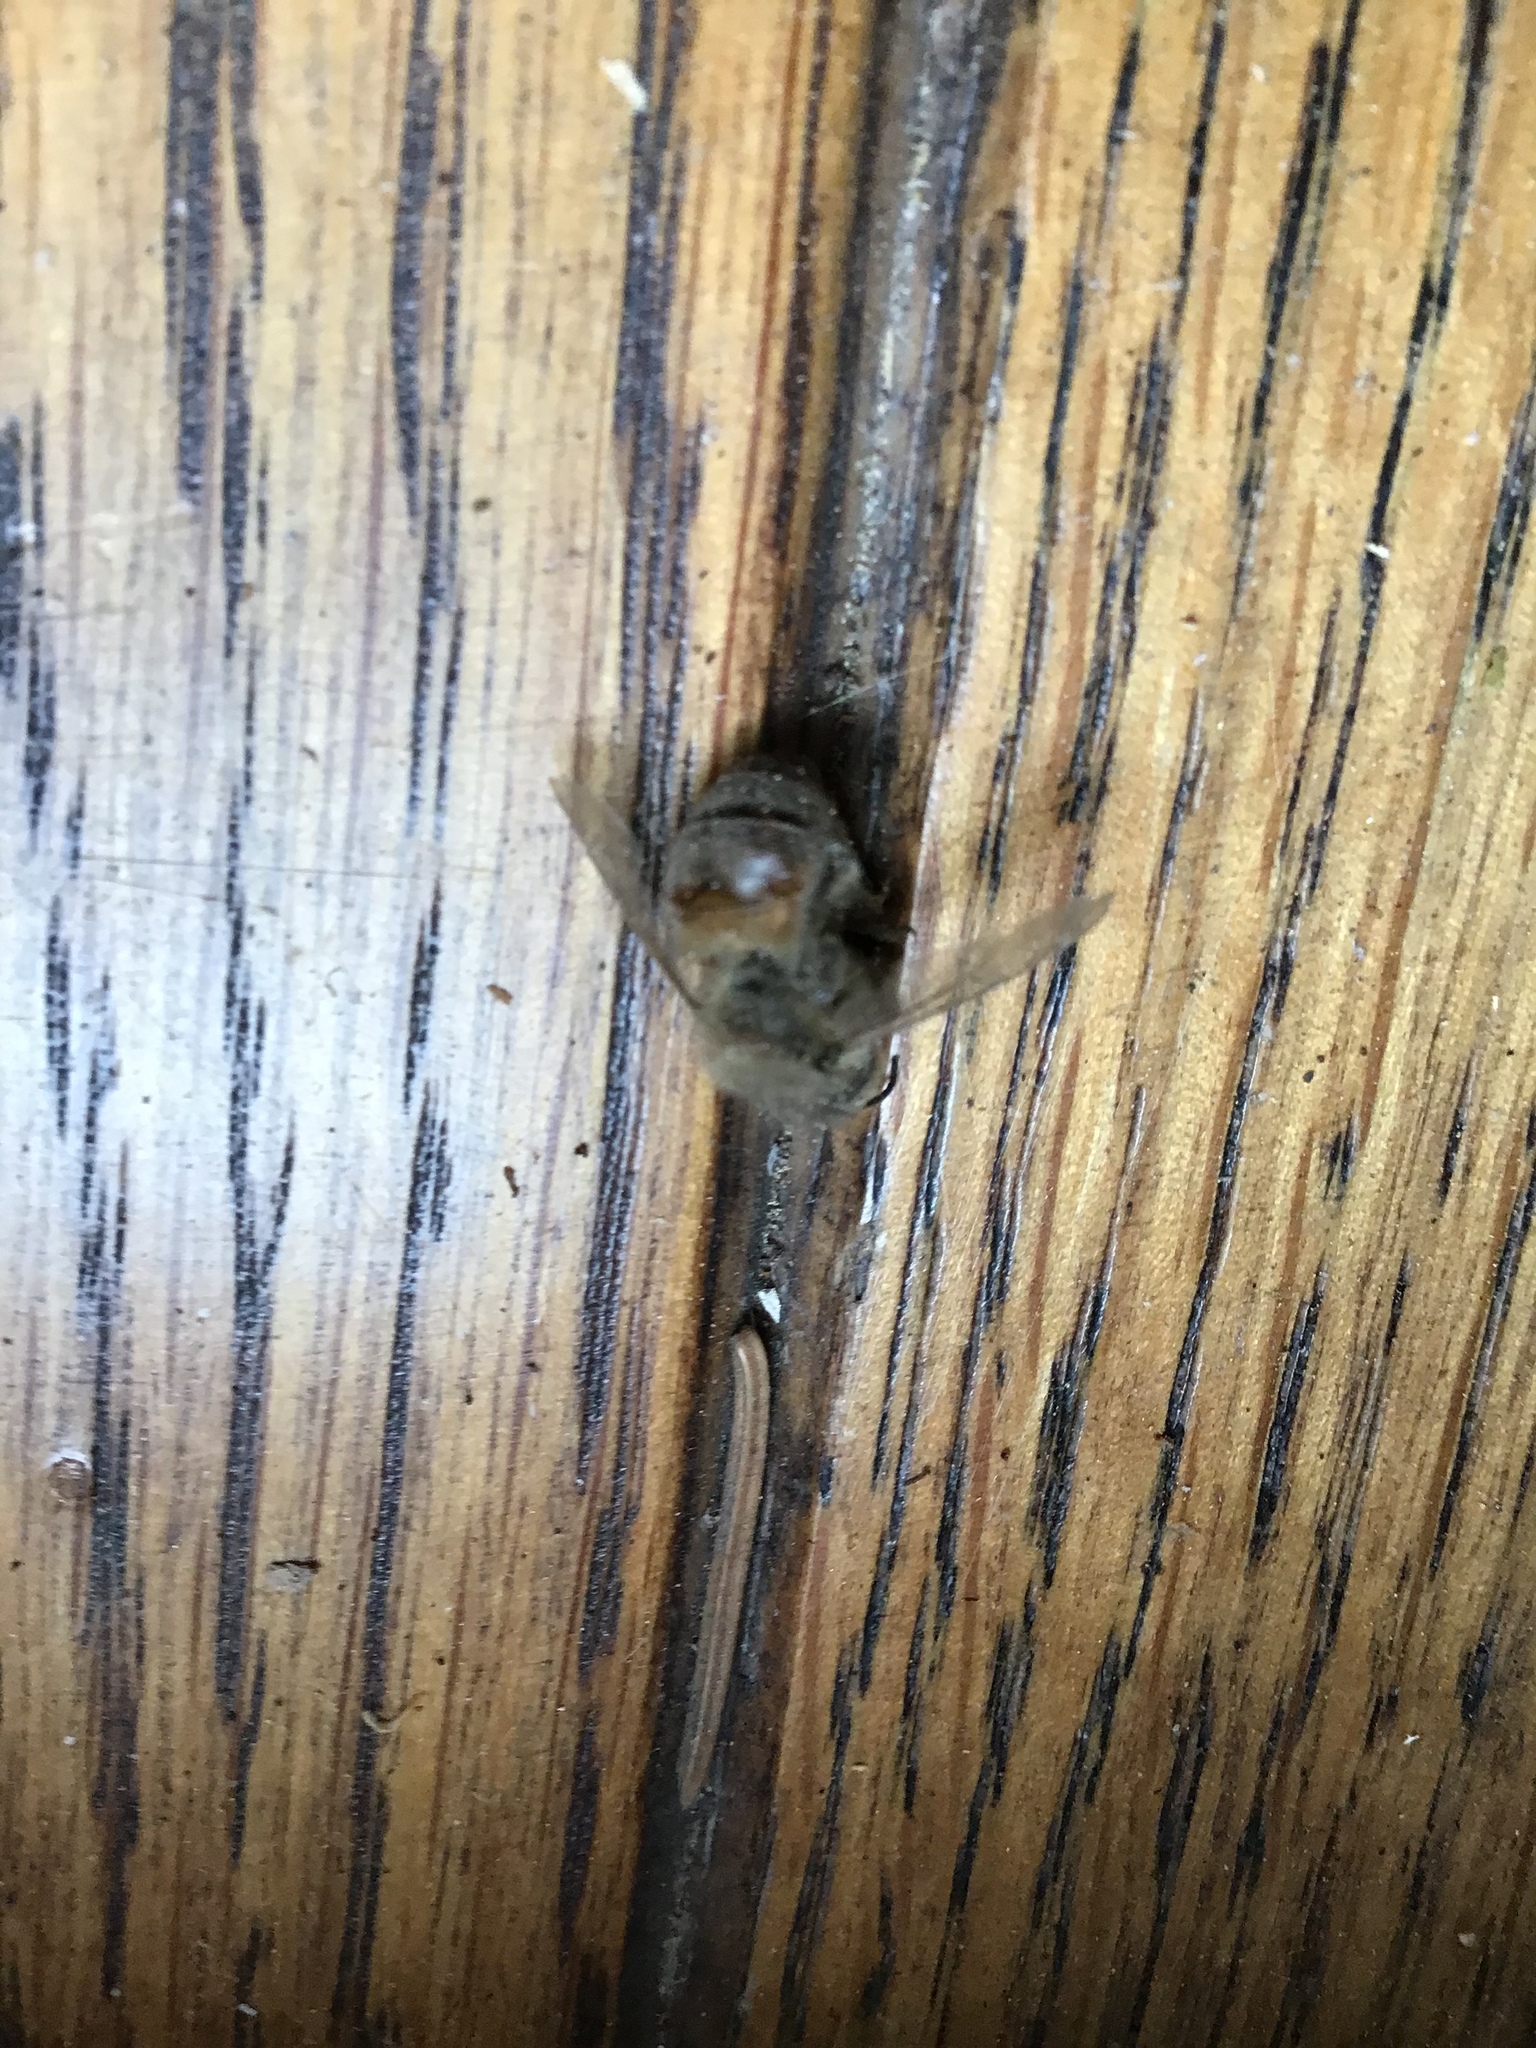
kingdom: Animalia
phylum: Arthropoda
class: Insecta
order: Hymenoptera
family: Apidae
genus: Apis
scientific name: Apis mellifera
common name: Honey bee
